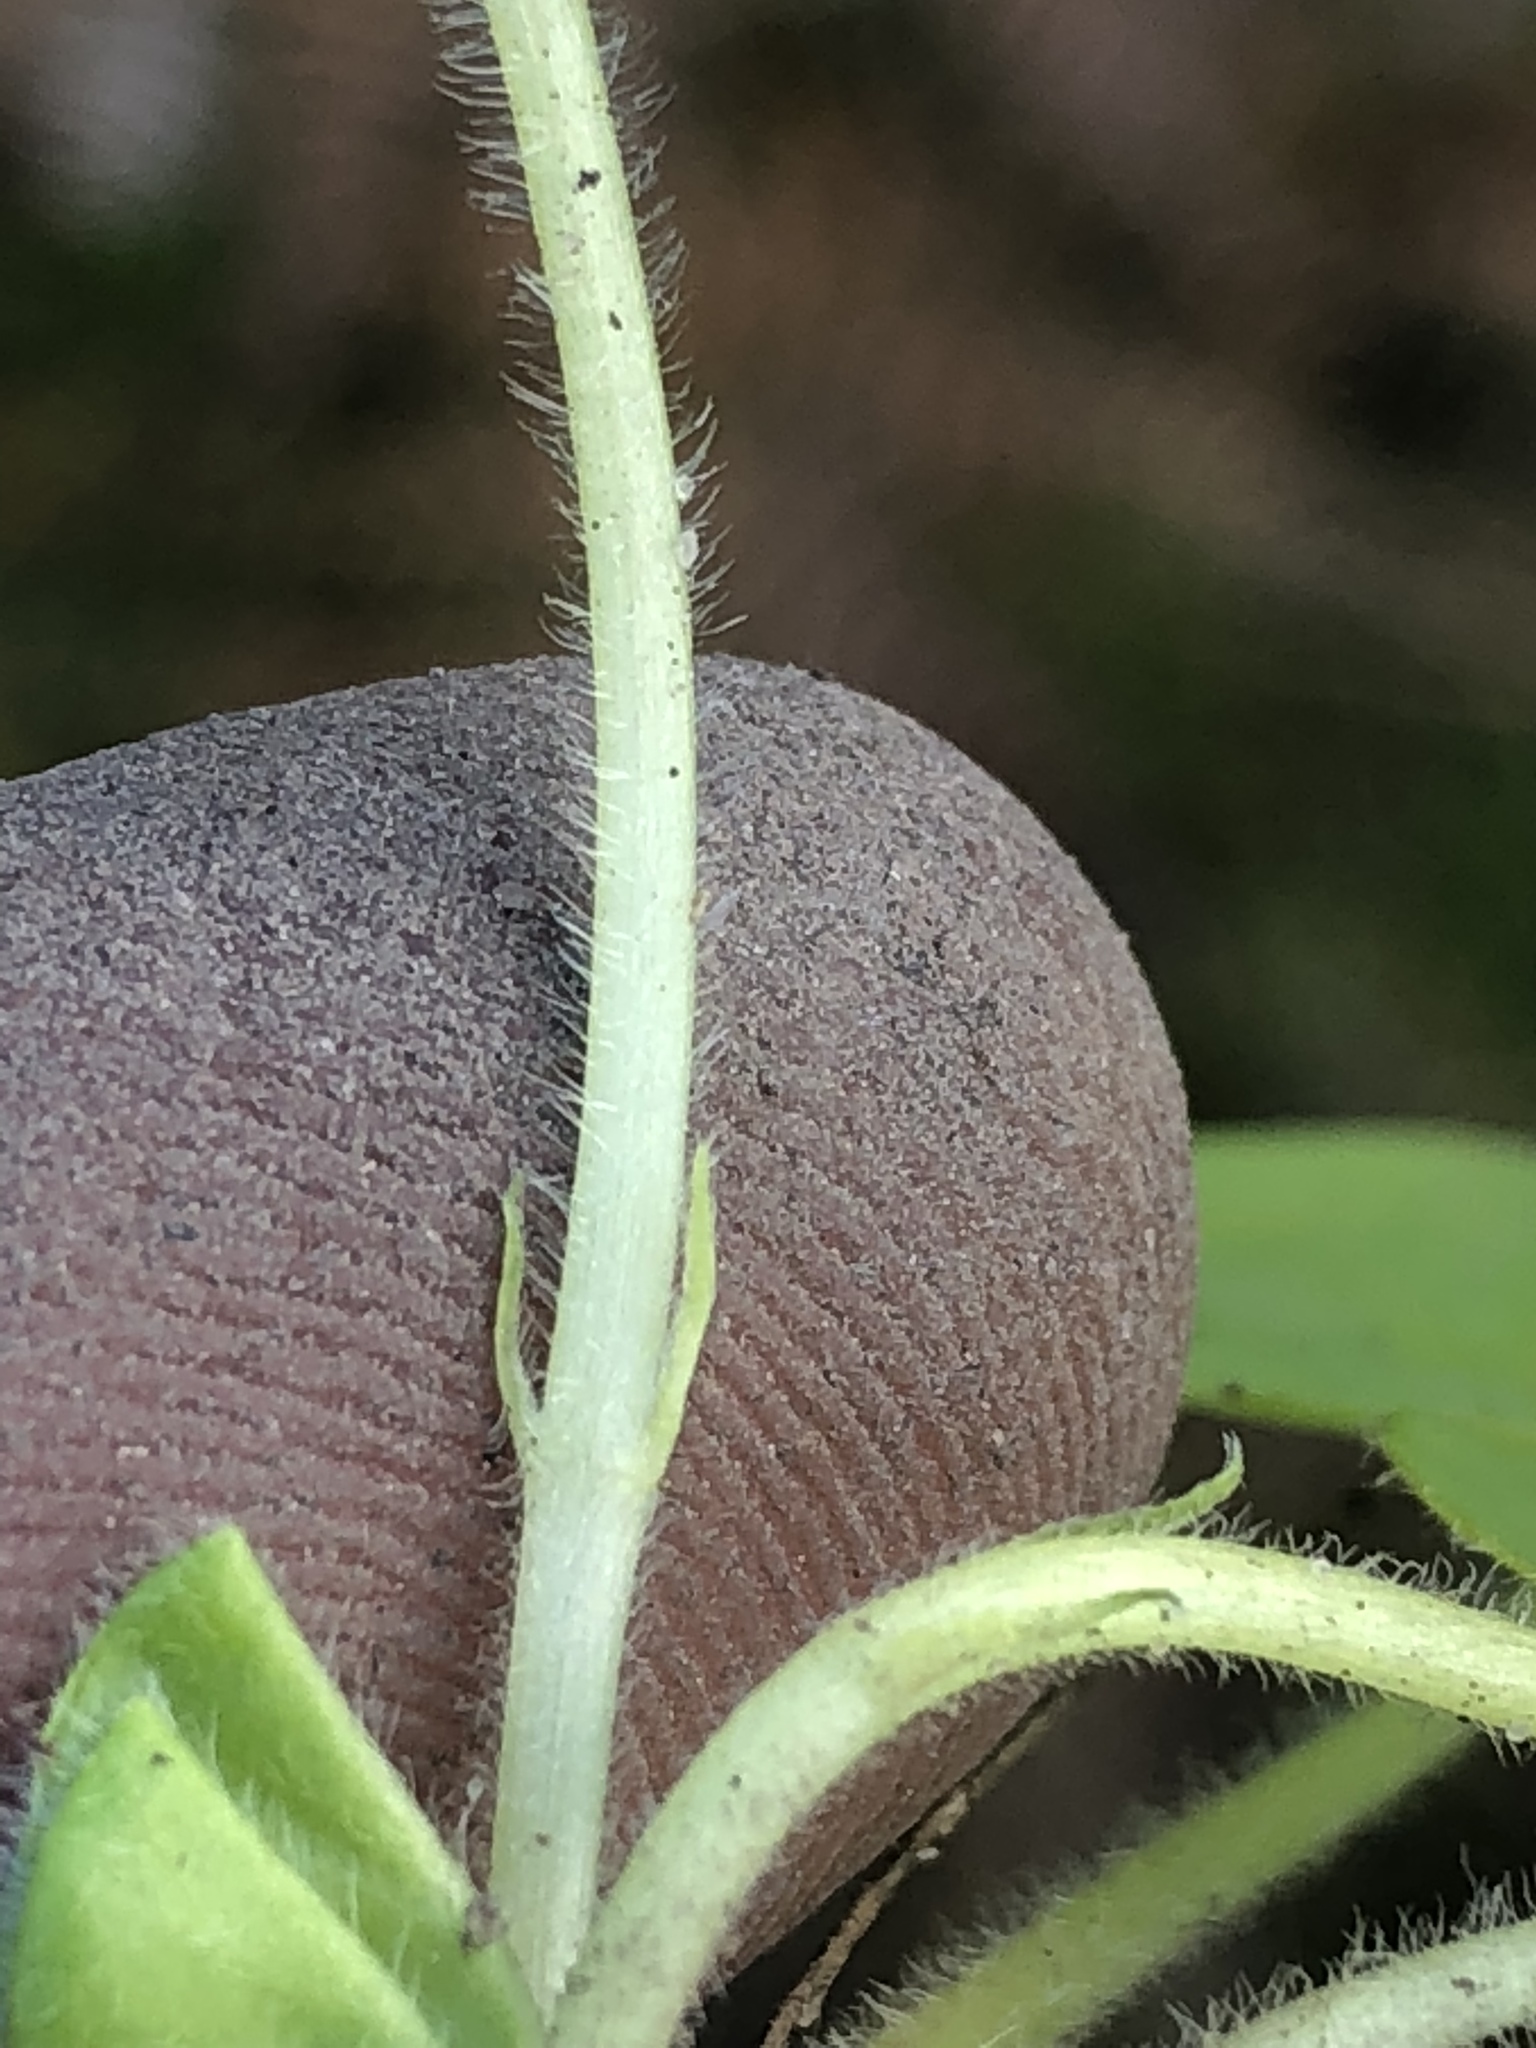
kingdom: Plantae
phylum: Tracheophyta
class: Magnoliopsida
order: Oxalidales
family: Oxalidaceae
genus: Oxalis
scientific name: Oxalis purpurea
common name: Purple woodsorrel
